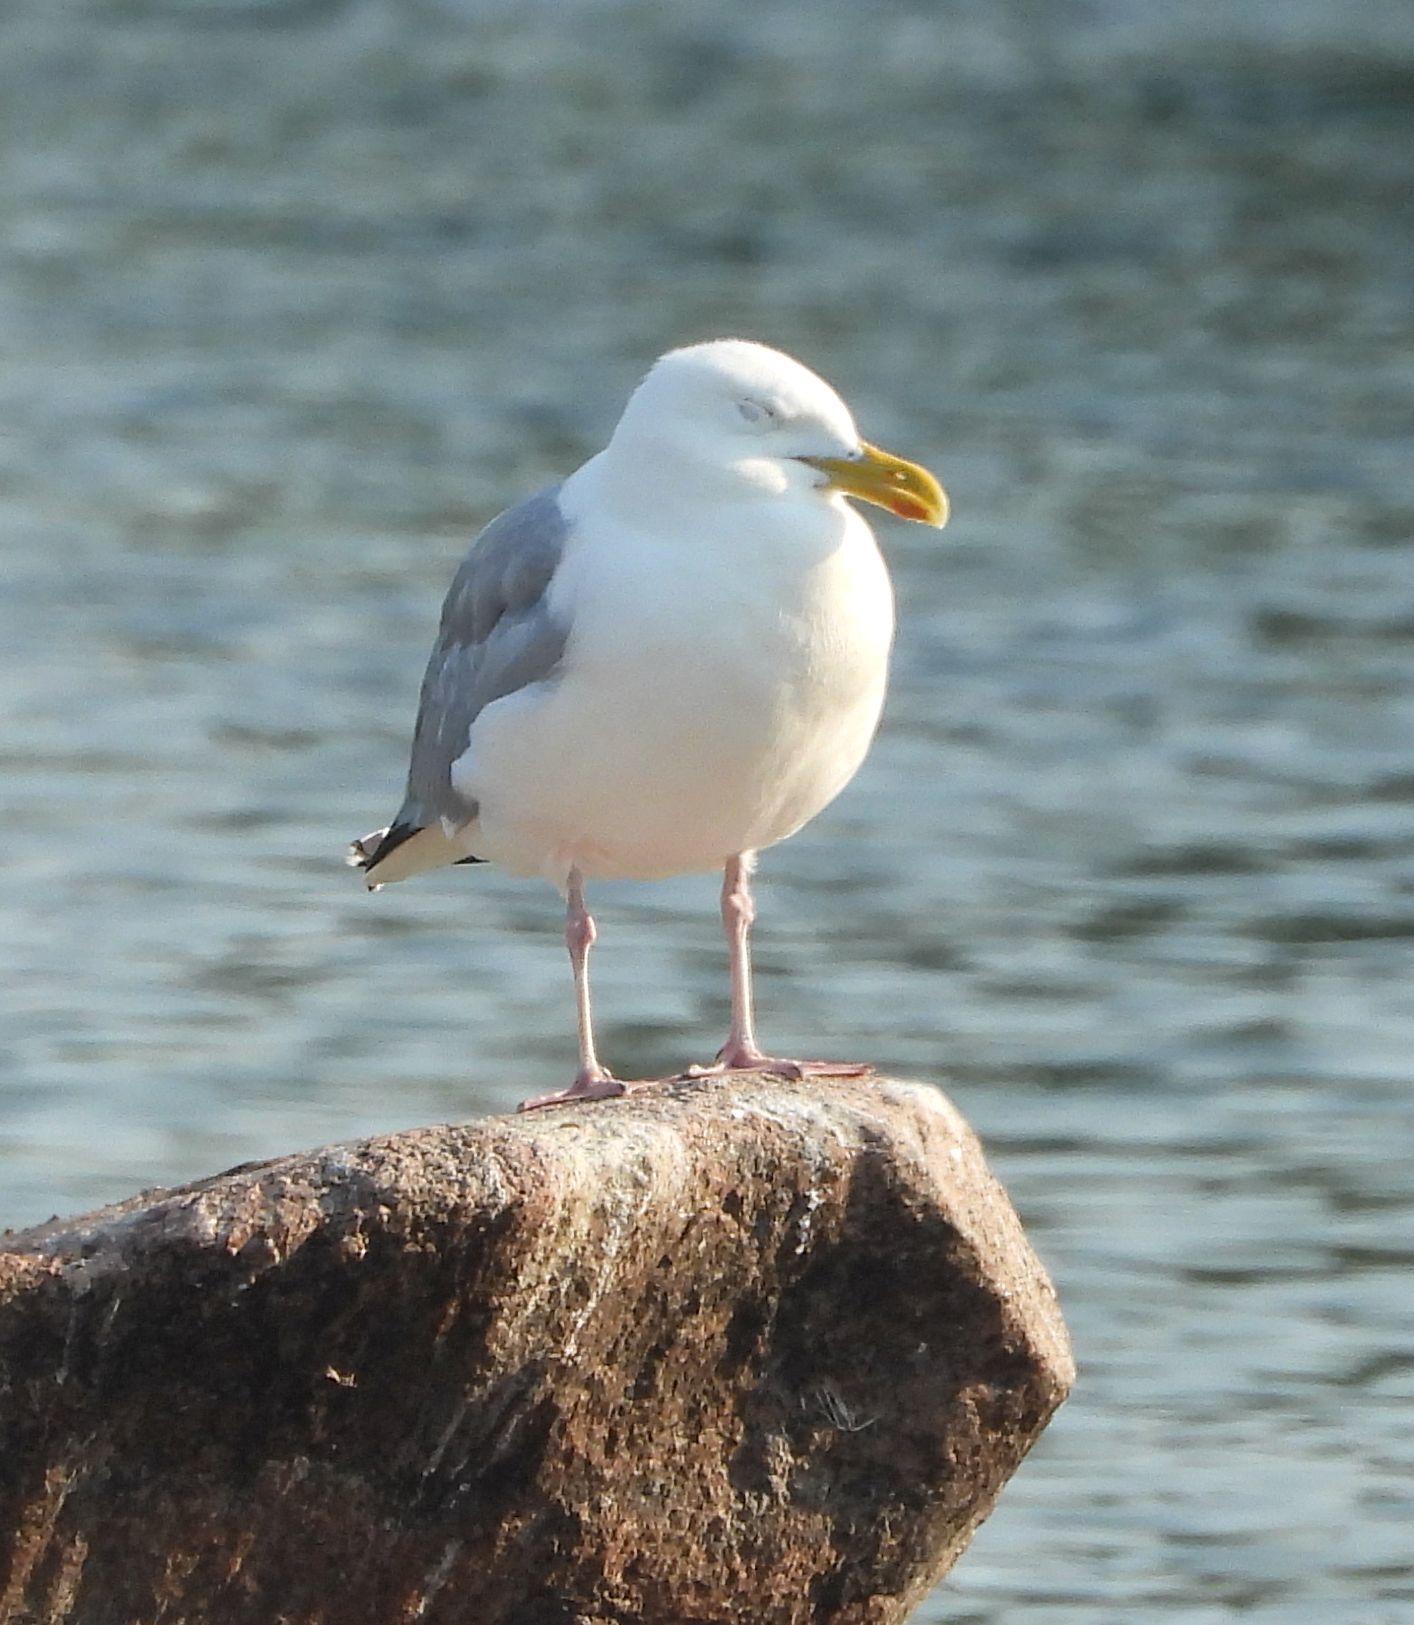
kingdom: Animalia
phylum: Chordata
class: Aves
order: Charadriiformes
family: Laridae
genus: Larus
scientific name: Larus argentatus
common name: Herring gull
